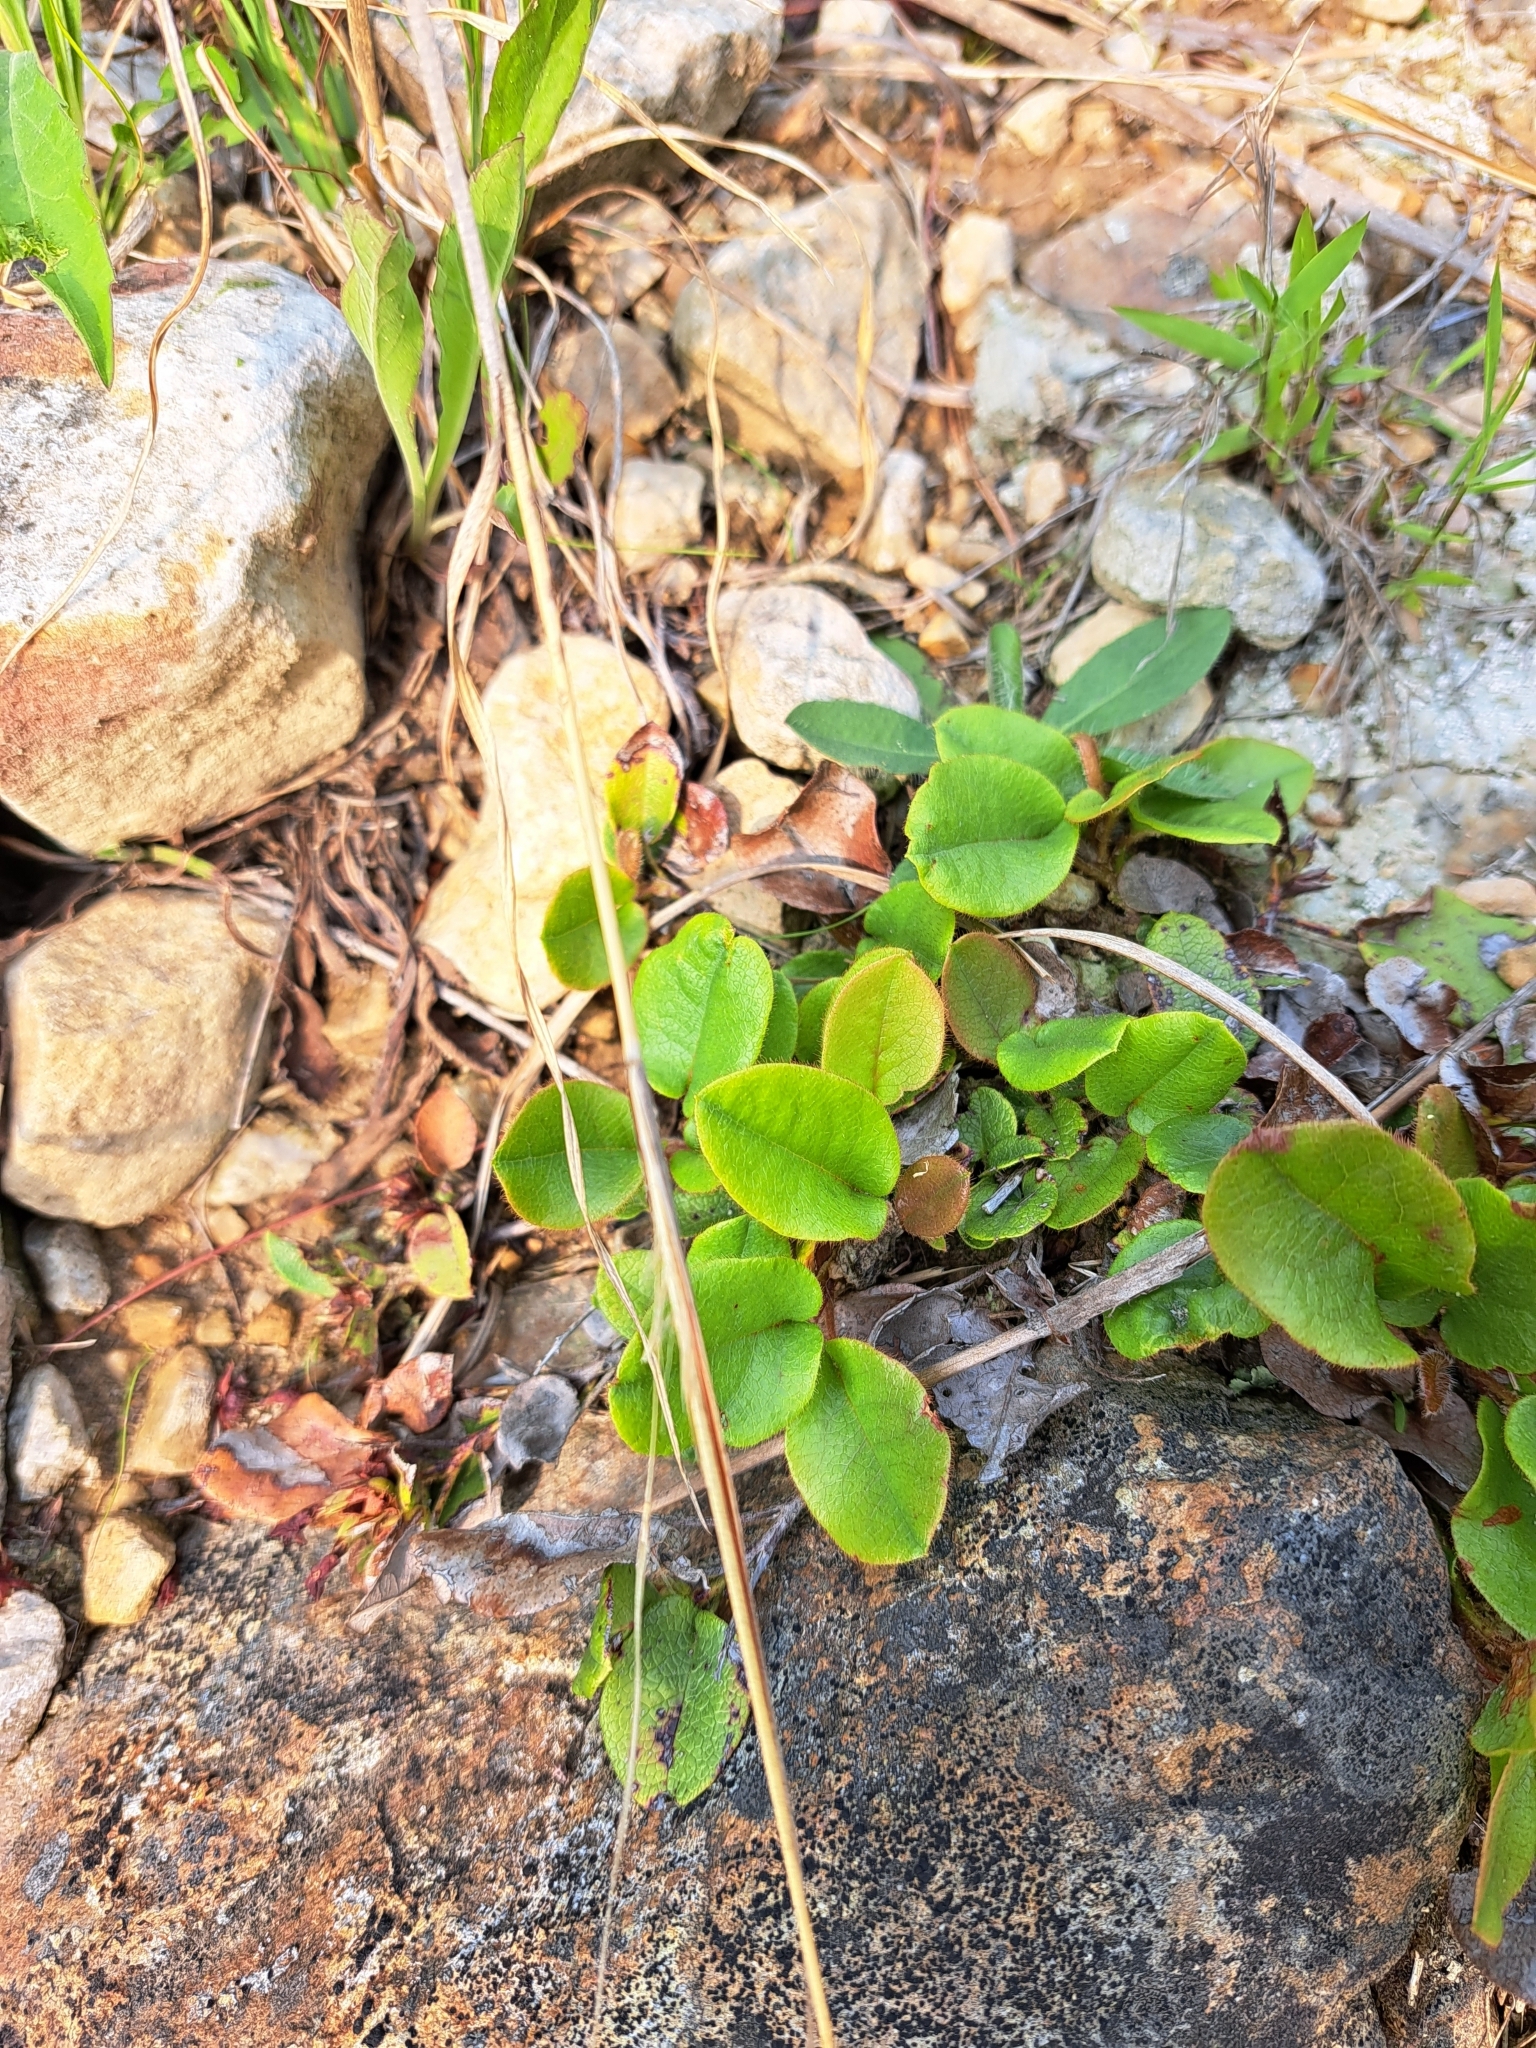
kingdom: Plantae
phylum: Tracheophyta
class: Magnoliopsida
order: Ericales
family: Ericaceae
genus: Epigaea
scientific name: Epigaea repens
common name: Gravelroot
